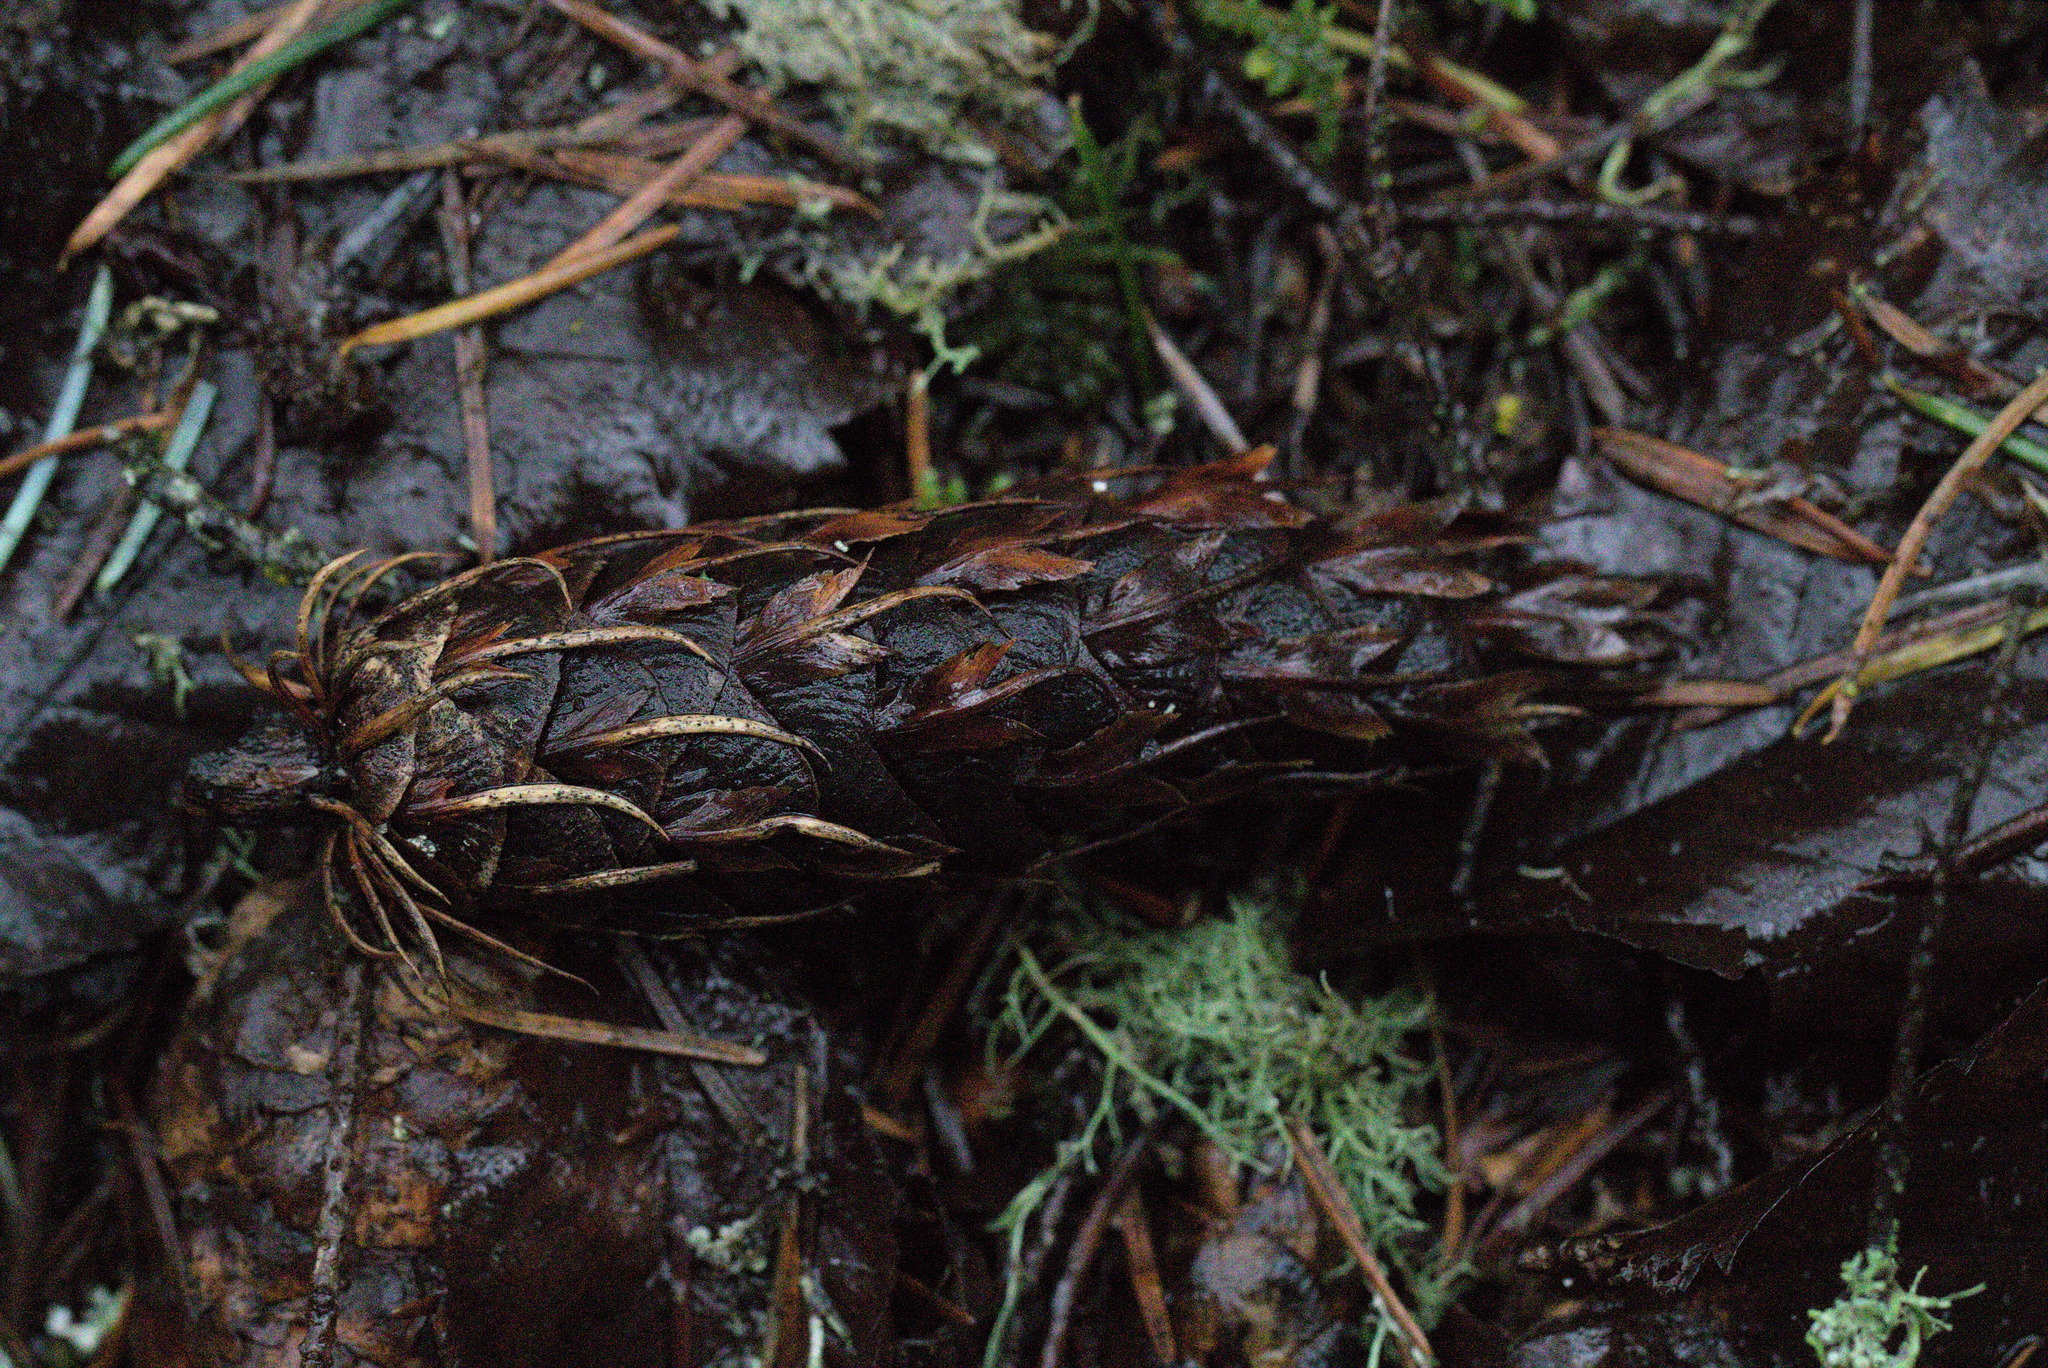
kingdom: Plantae
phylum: Tracheophyta
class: Pinopsida
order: Pinales
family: Pinaceae
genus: Pseudotsuga
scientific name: Pseudotsuga menziesii
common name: Douglas fir
